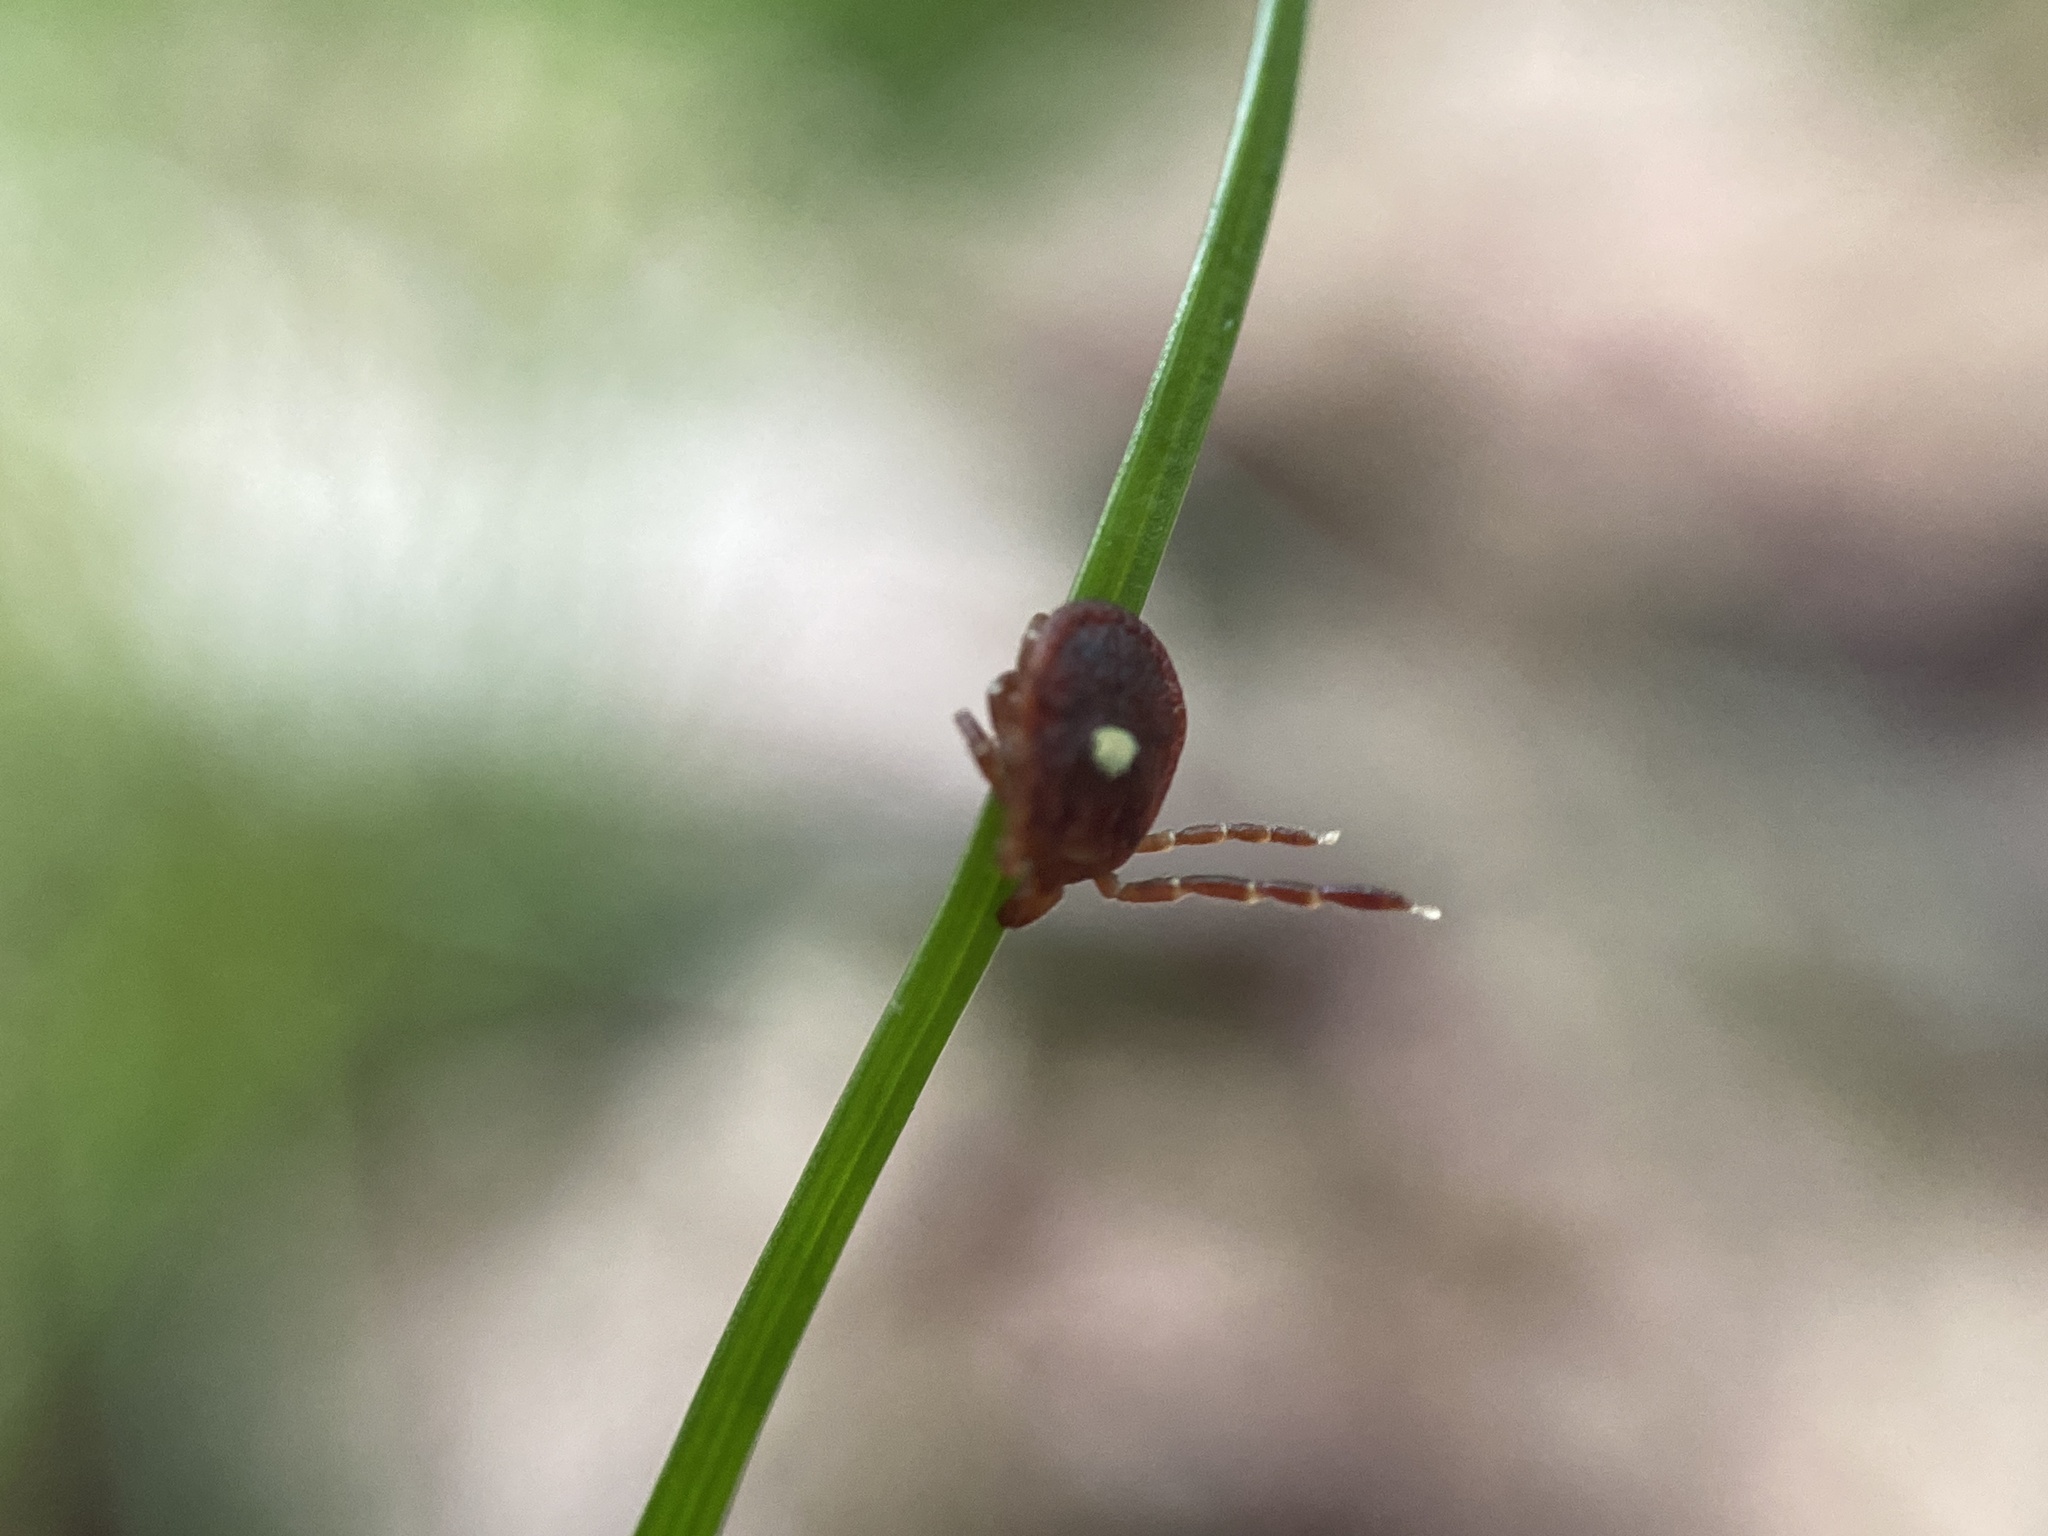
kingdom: Animalia
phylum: Arthropoda
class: Arachnida
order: Ixodida
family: Ixodidae
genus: Amblyomma
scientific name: Amblyomma americanum
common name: Lone star tick
